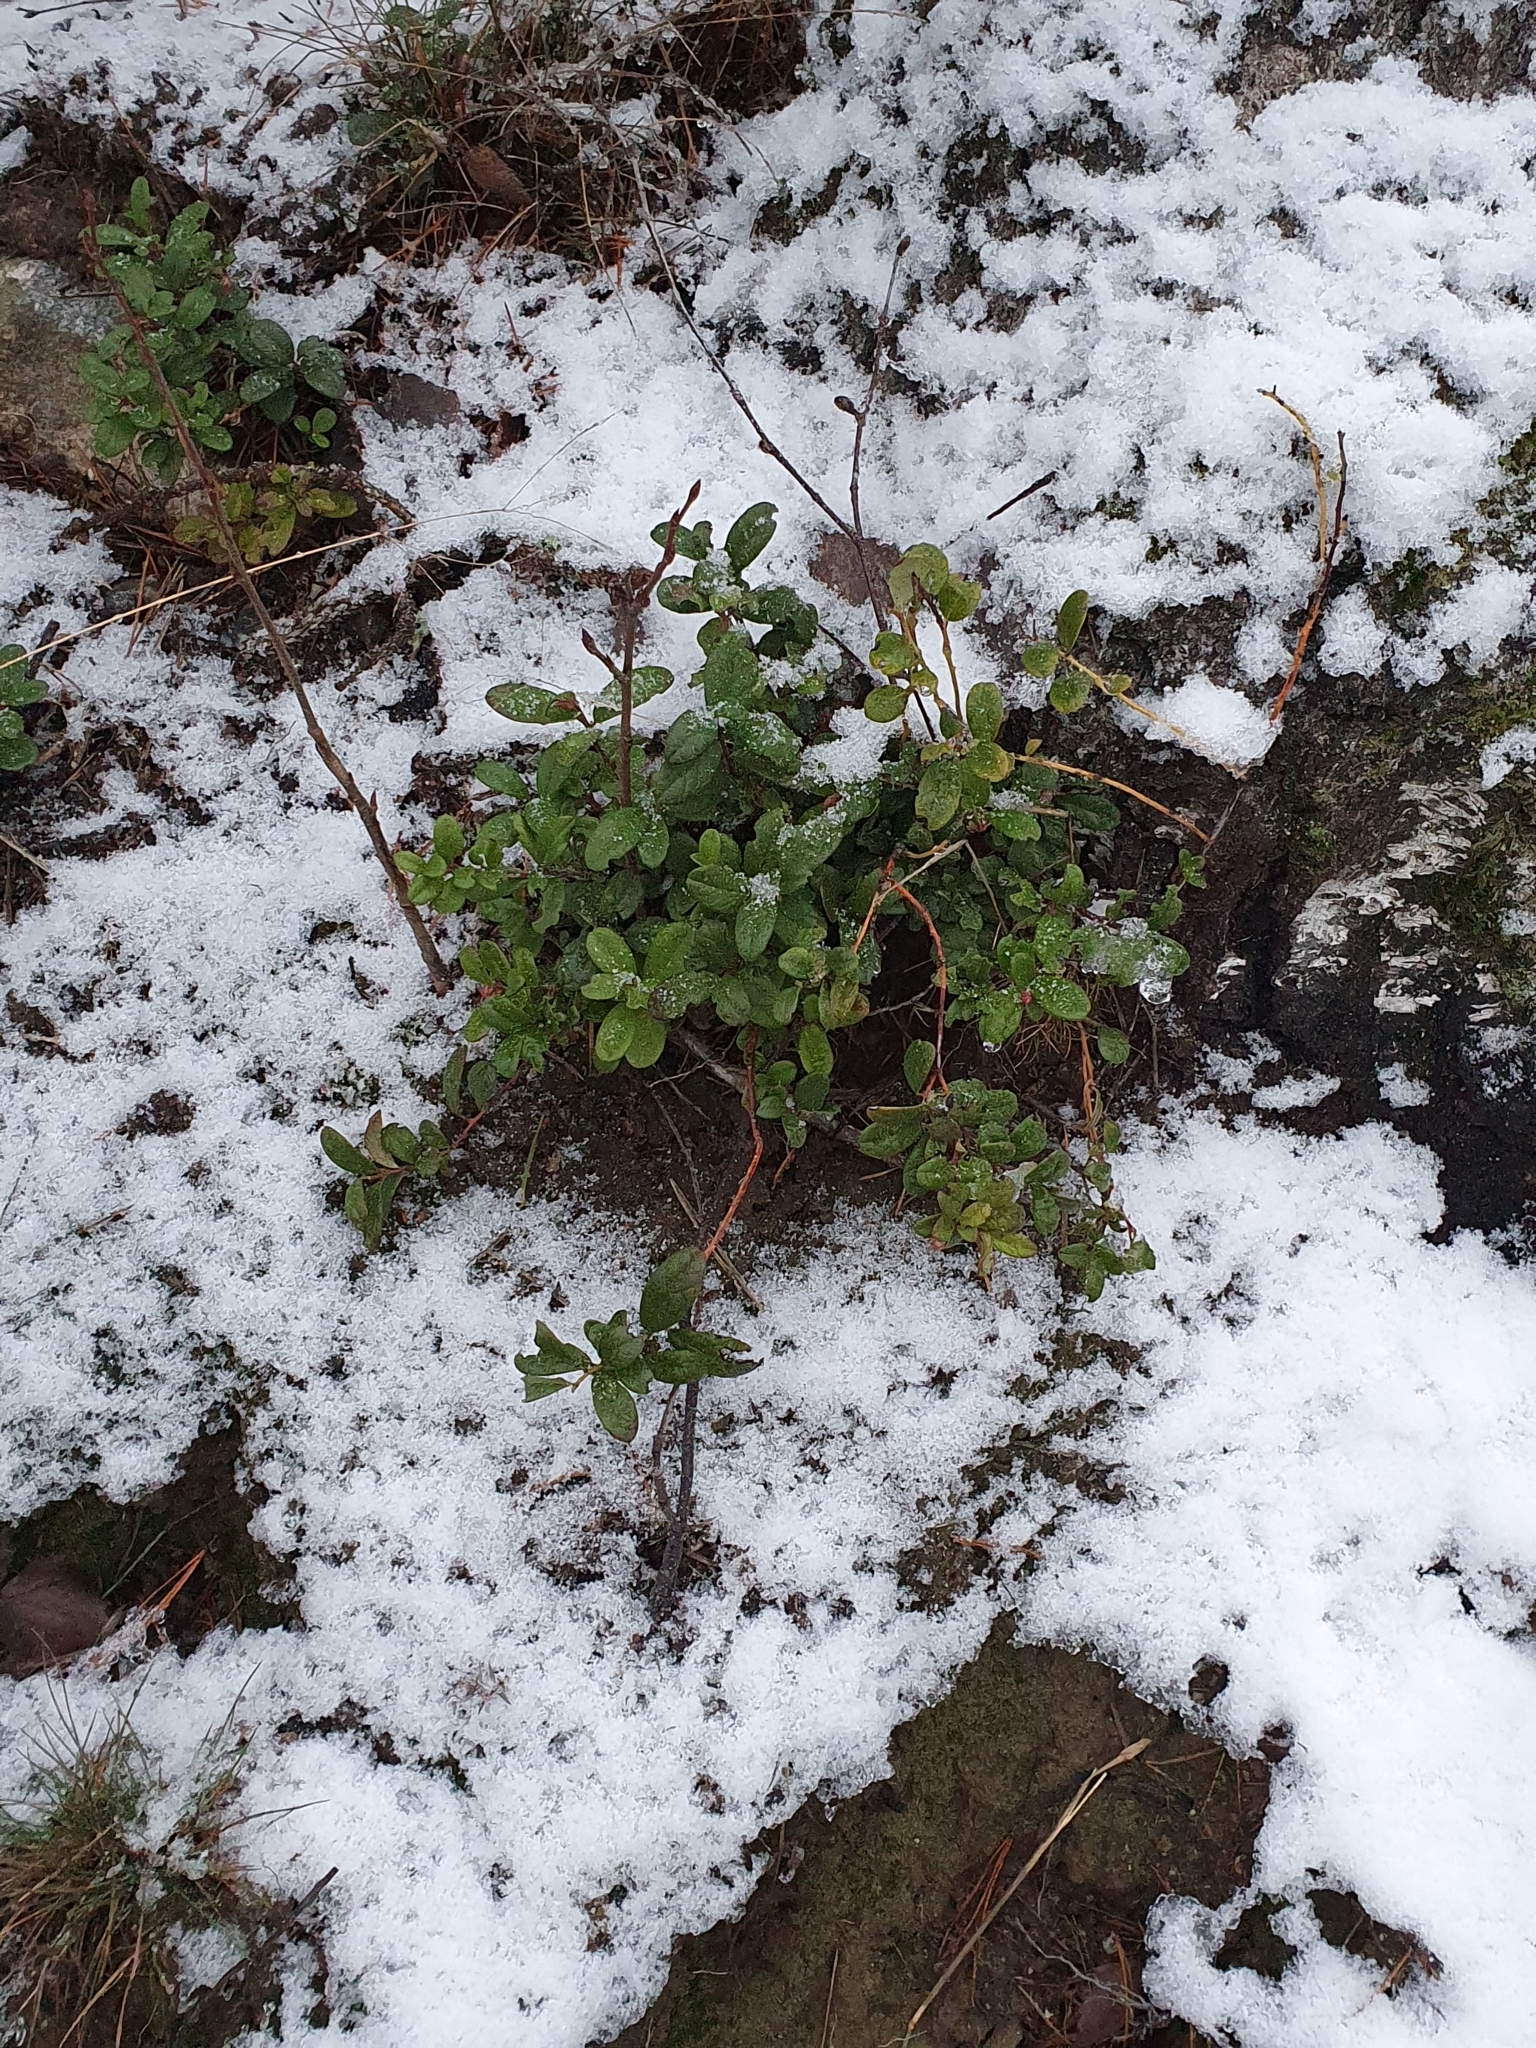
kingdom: Plantae
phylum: Tracheophyta
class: Magnoliopsida
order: Ericales
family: Ericaceae
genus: Vaccinium
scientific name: Vaccinium vitis-idaea
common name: Cowberry
